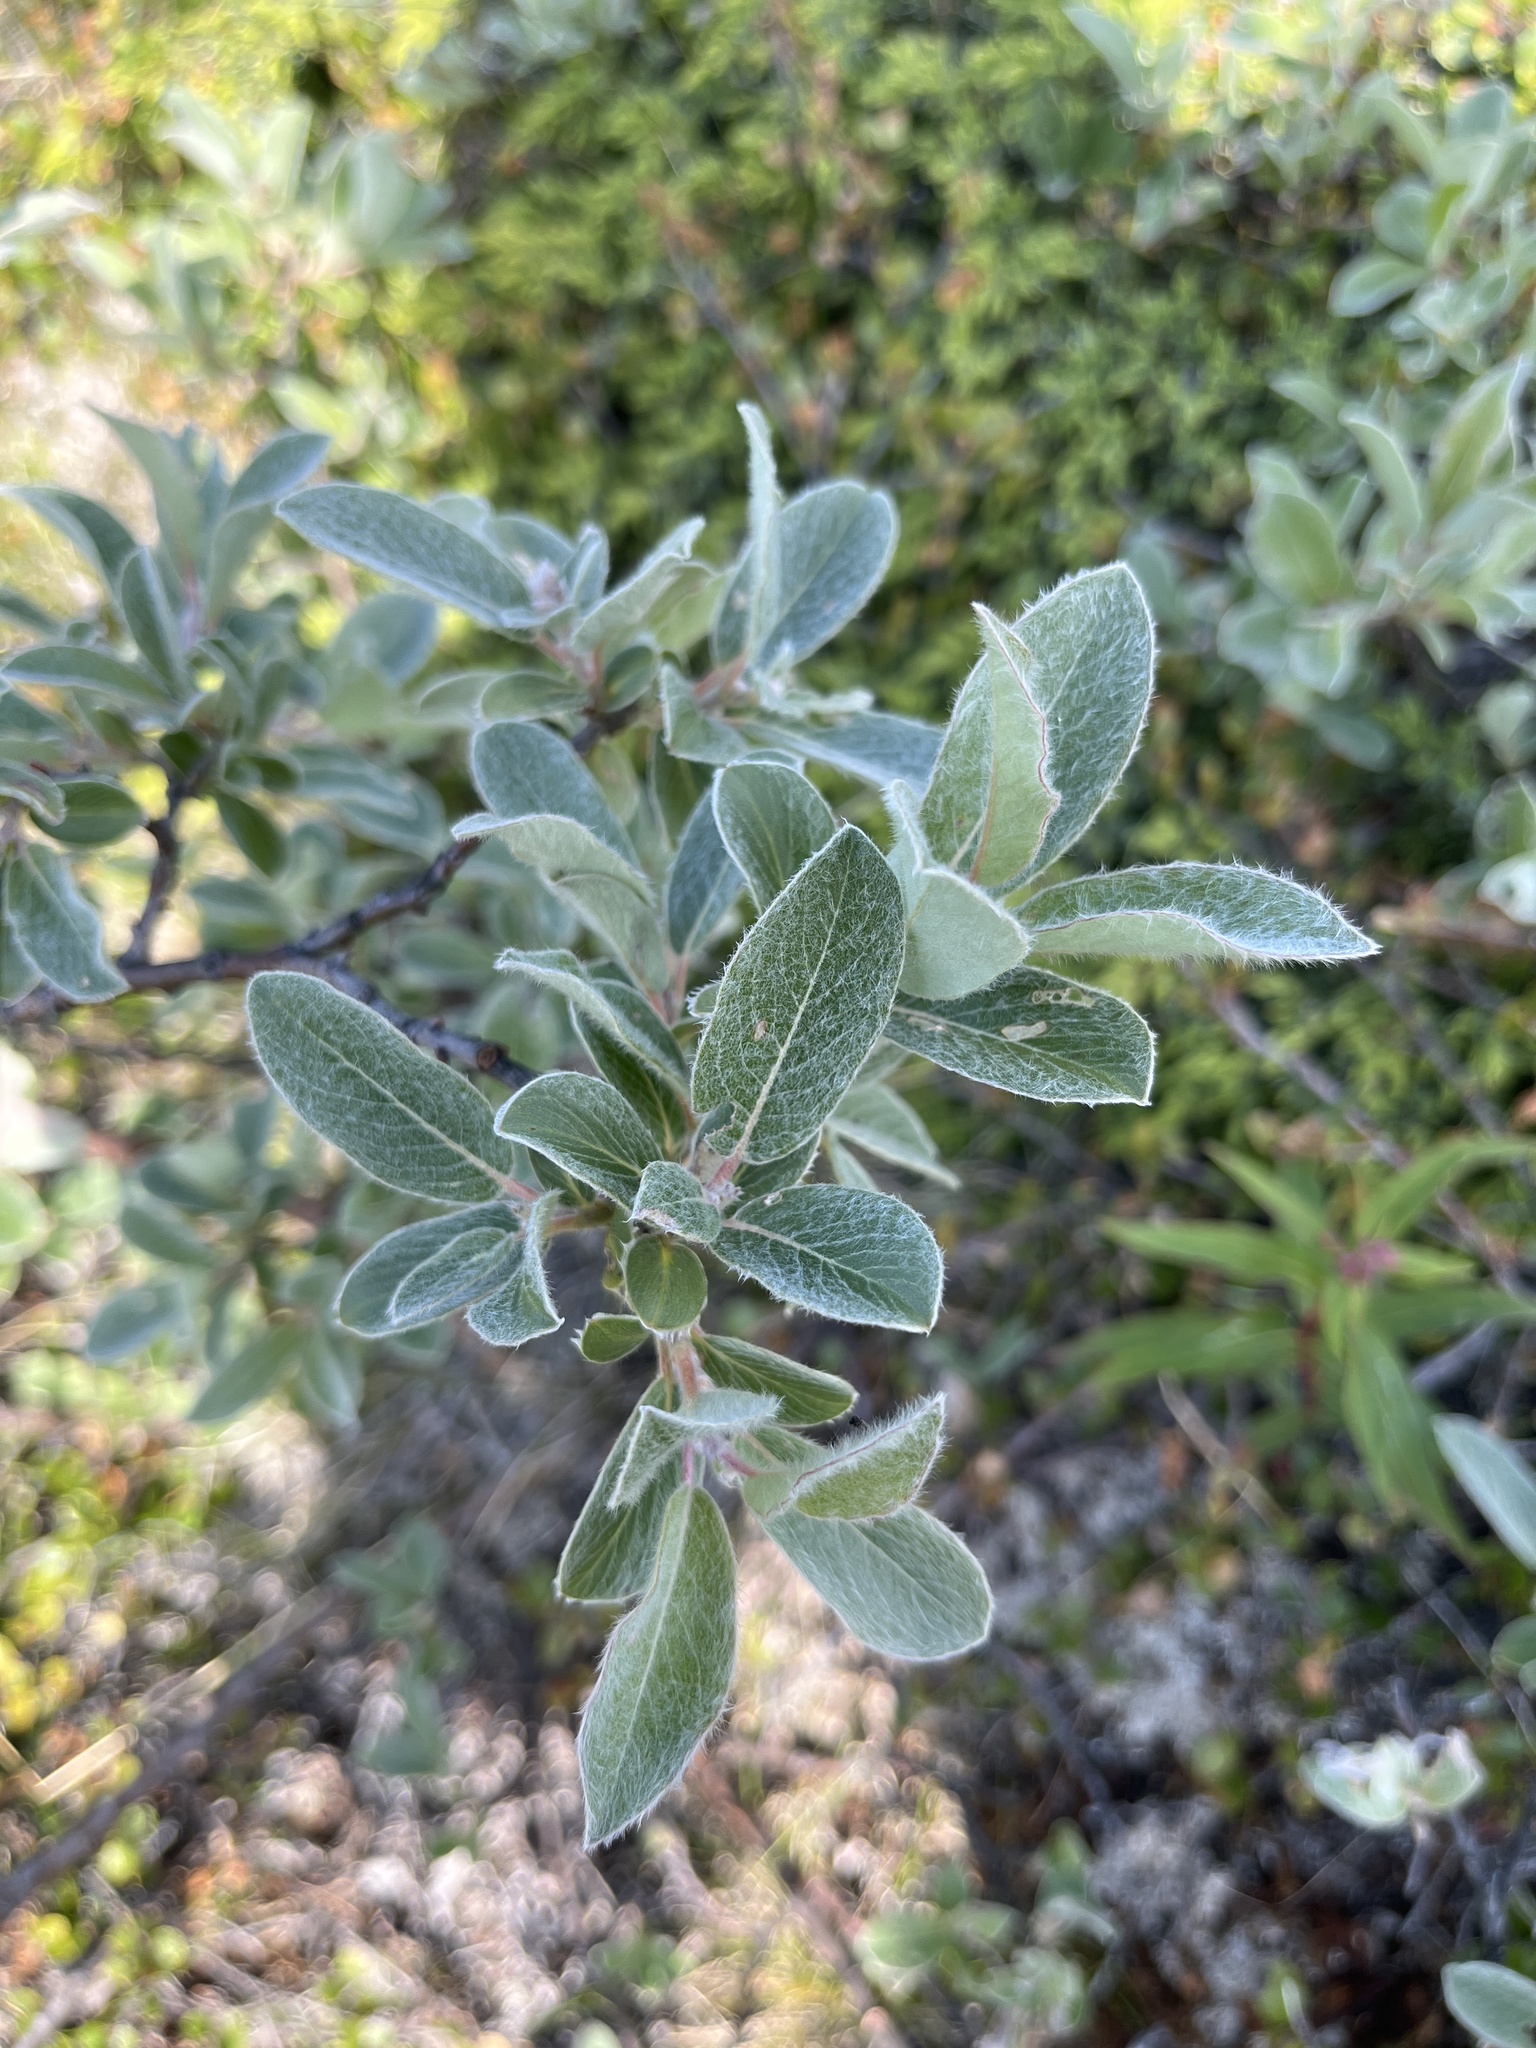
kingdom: Plantae
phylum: Tracheophyta
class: Magnoliopsida
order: Malpighiales
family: Salicaceae
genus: Salix
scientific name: Salix glauca
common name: Glaucous willow
